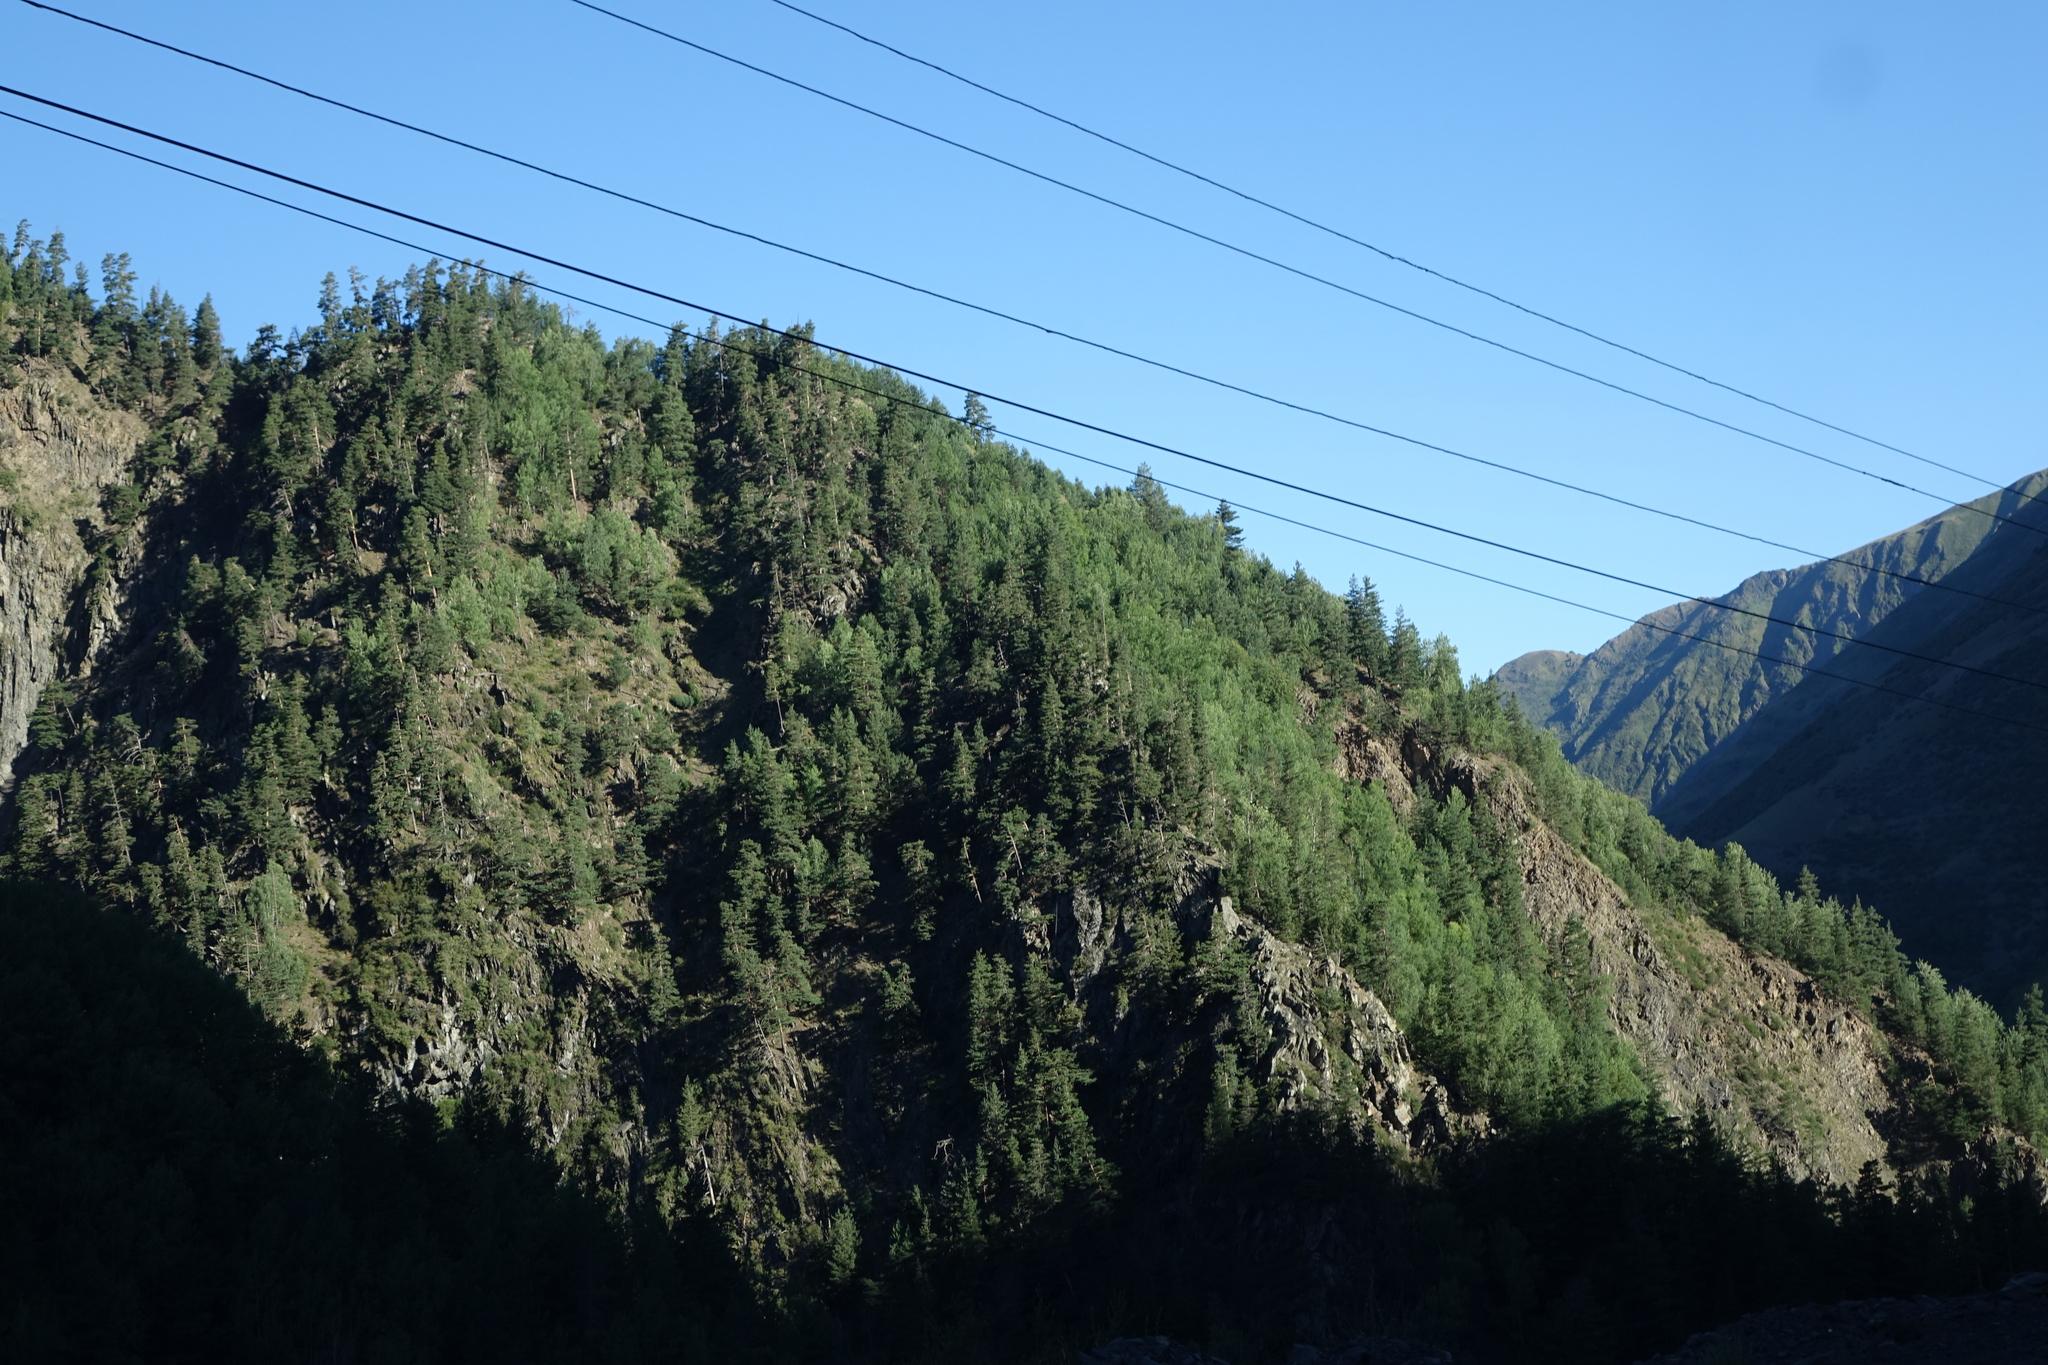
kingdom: Plantae
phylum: Tracheophyta
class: Pinopsida
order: Pinales
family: Pinaceae
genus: Pinus
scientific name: Pinus sylvestris
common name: Scots pine
